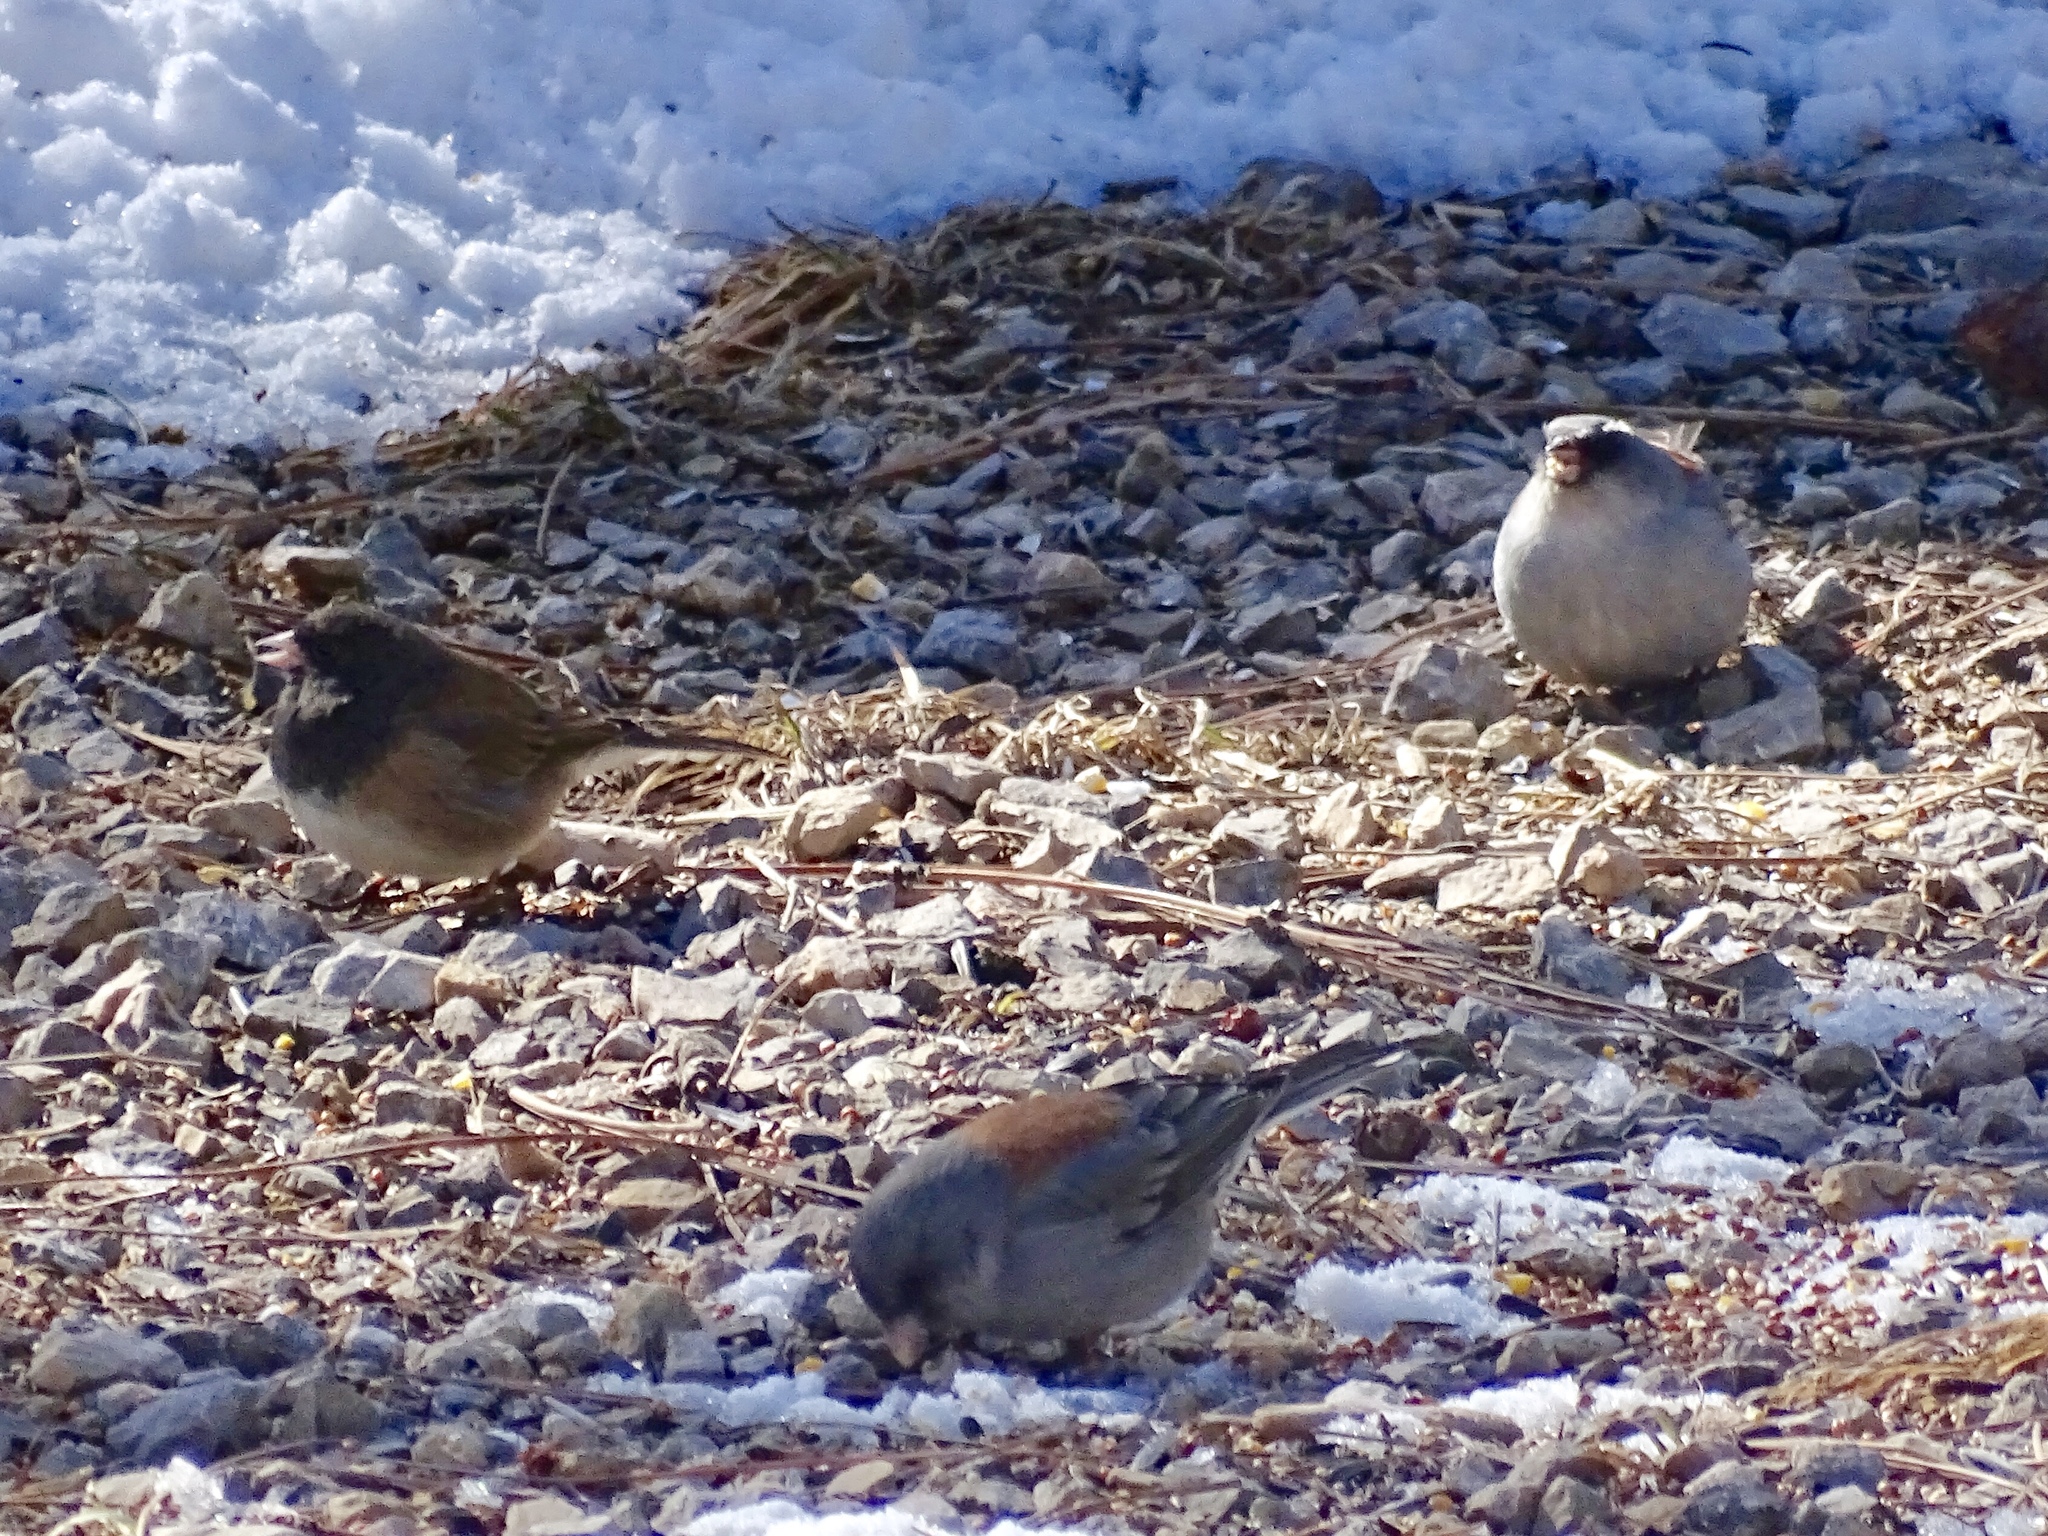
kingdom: Animalia
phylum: Chordata
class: Aves
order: Passeriformes
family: Passerellidae
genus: Junco
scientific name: Junco hyemalis
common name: Dark-eyed junco
